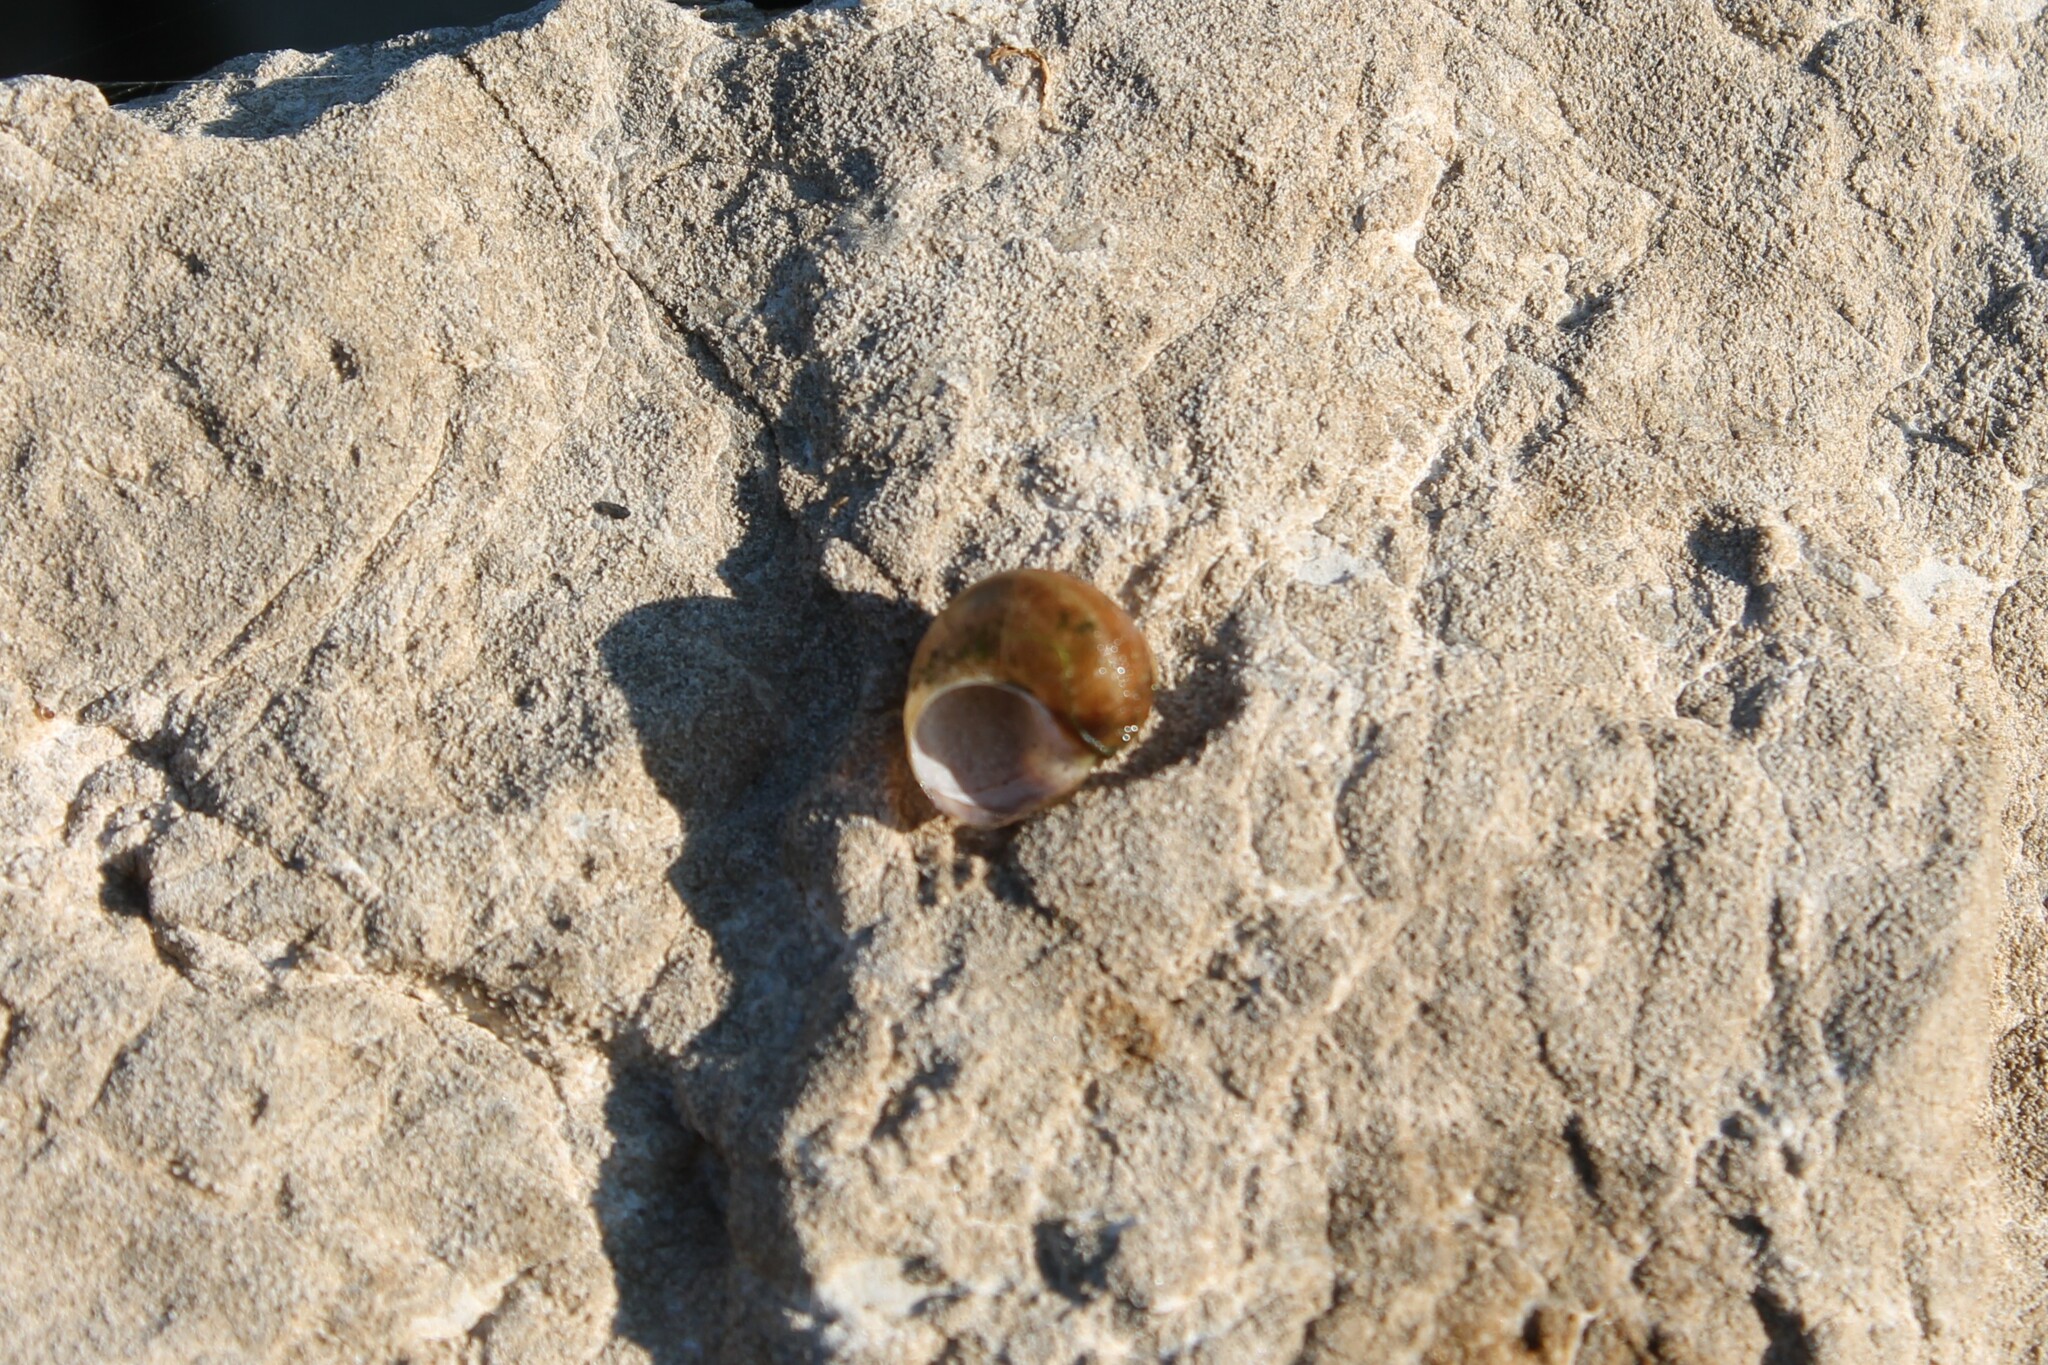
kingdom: Animalia
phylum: Mollusca
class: Gastropoda
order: Architaenioglossa
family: Viviparidae
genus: Callinina
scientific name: Callinina subpurpurea
